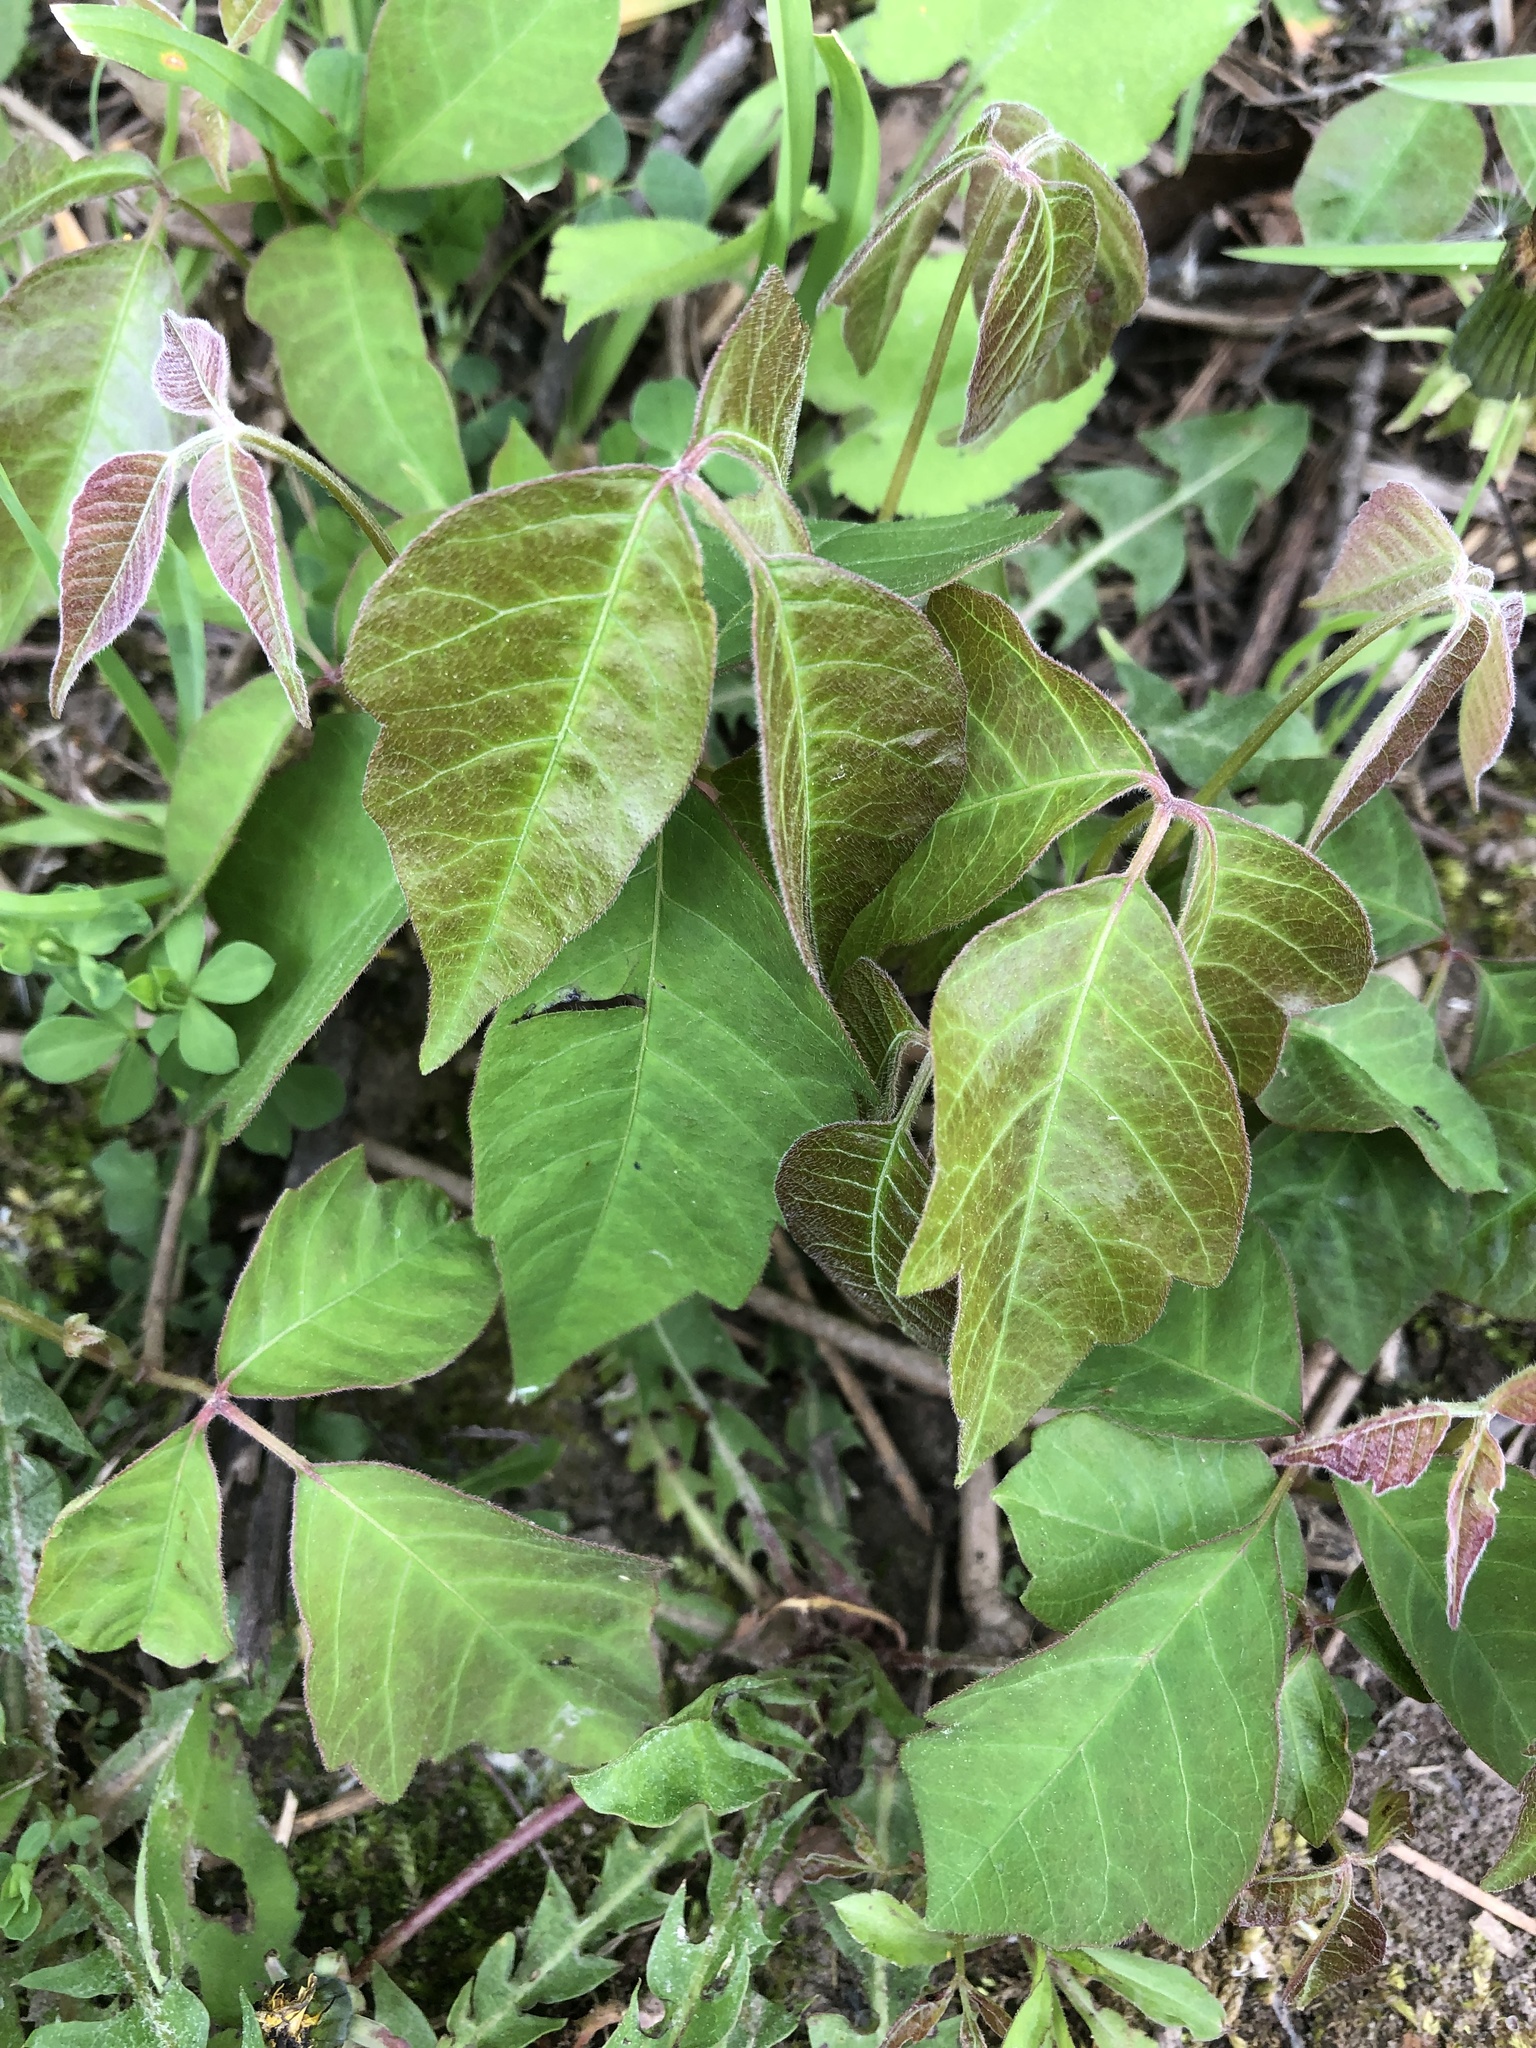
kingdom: Plantae
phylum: Tracheophyta
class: Magnoliopsida
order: Sapindales
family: Anacardiaceae
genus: Toxicodendron
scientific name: Toxicodendron radicans
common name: Poison ivy
